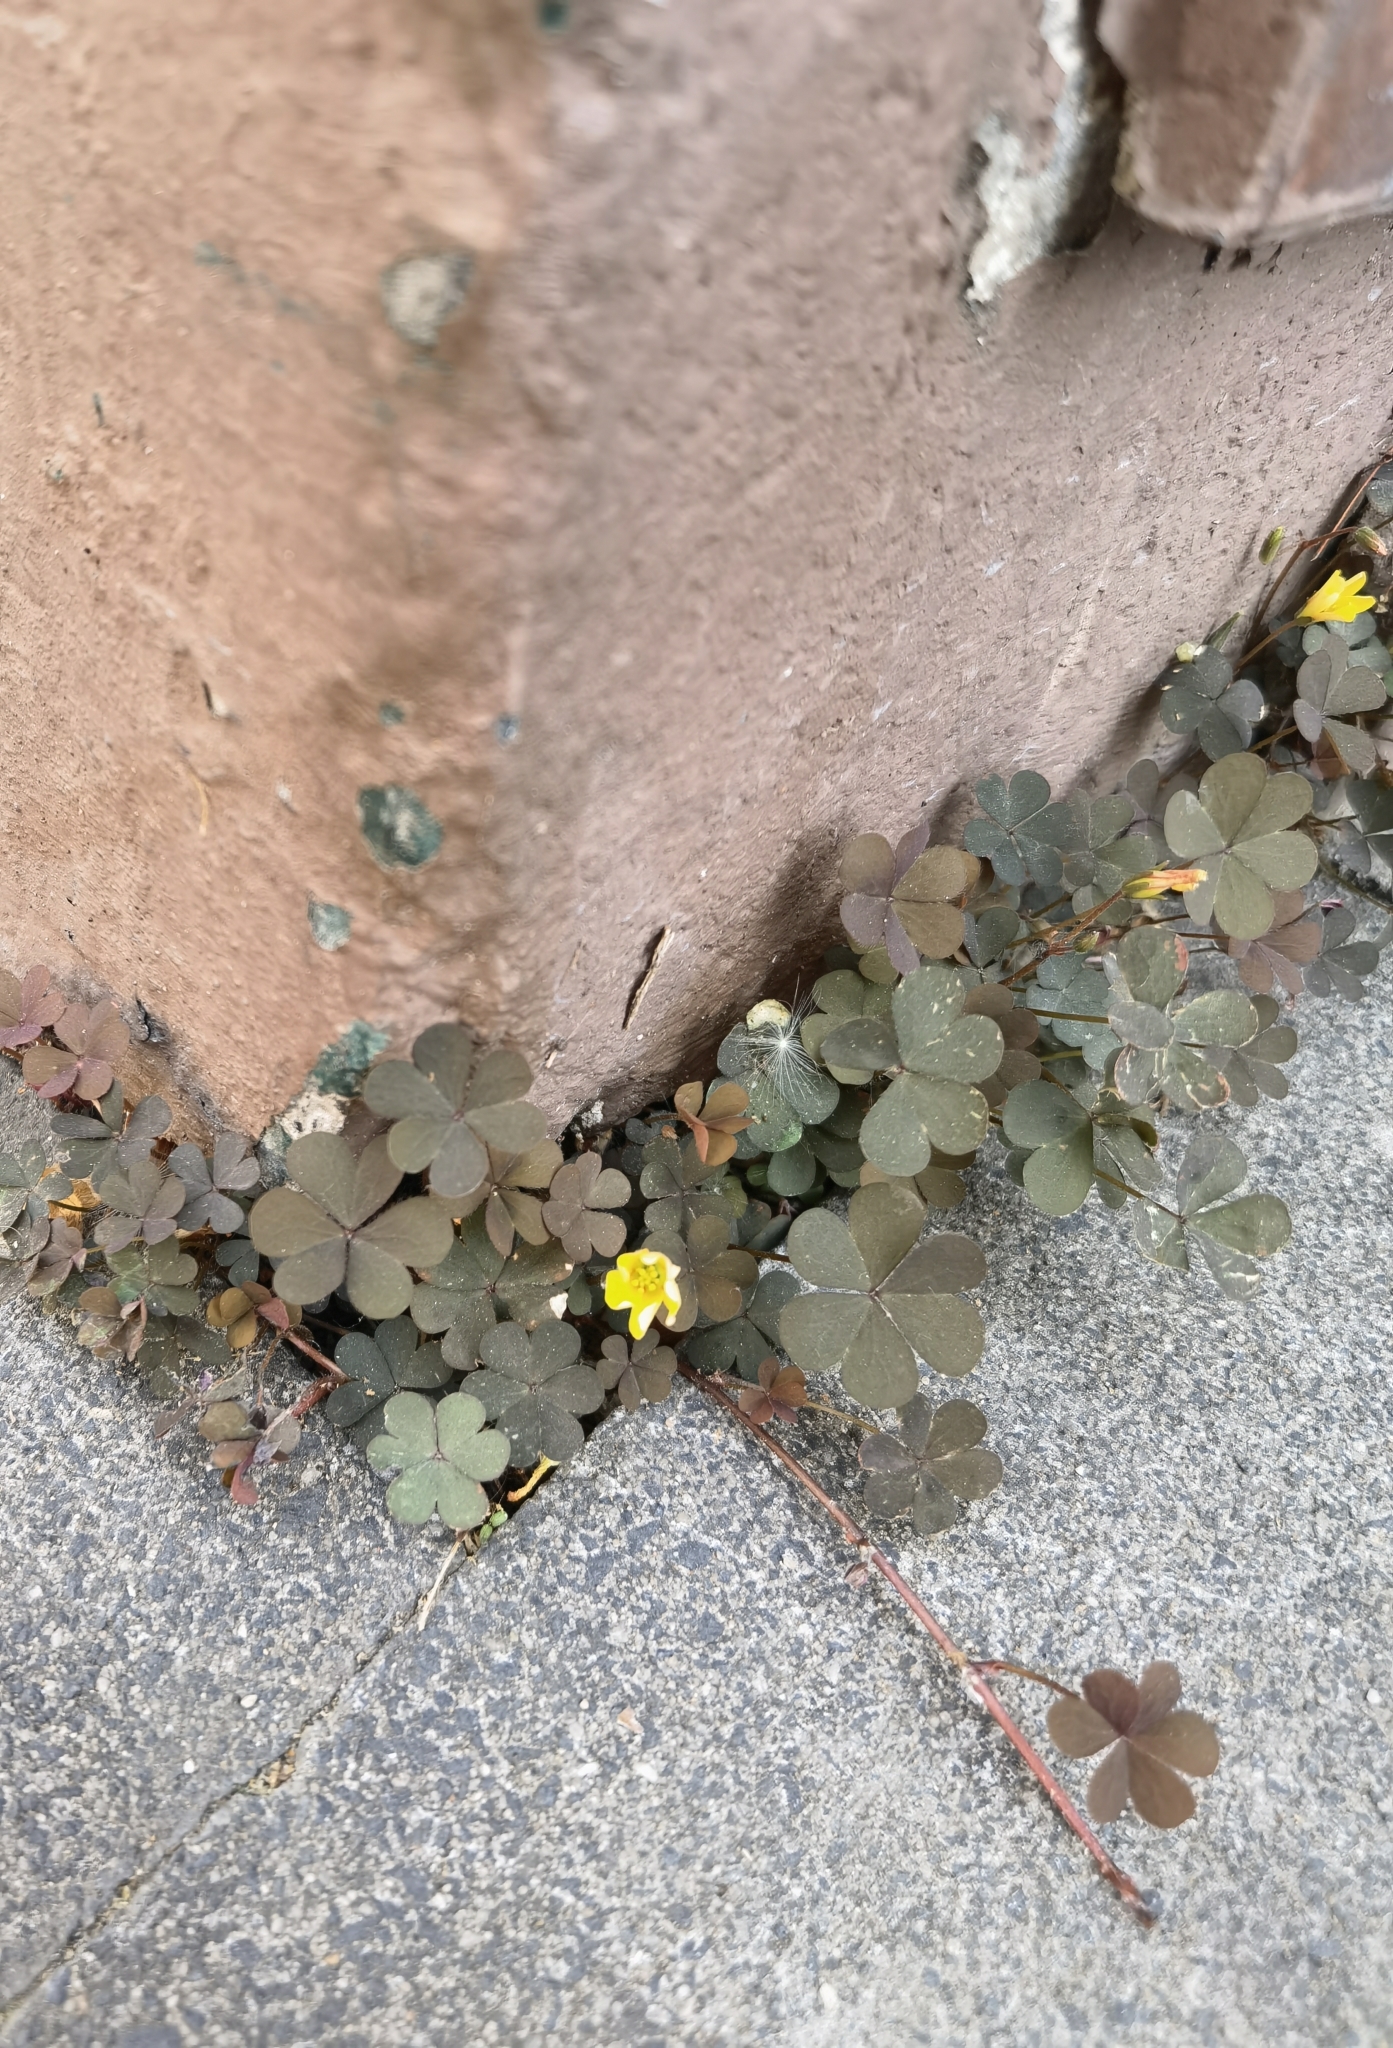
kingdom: Plantae
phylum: Tracheophyta
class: Magnoliopsida
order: Oxalidales
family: Oxalidaceae
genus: Oxalis
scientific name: Oxalis corniculata
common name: Procumbent yellow-sorrel
